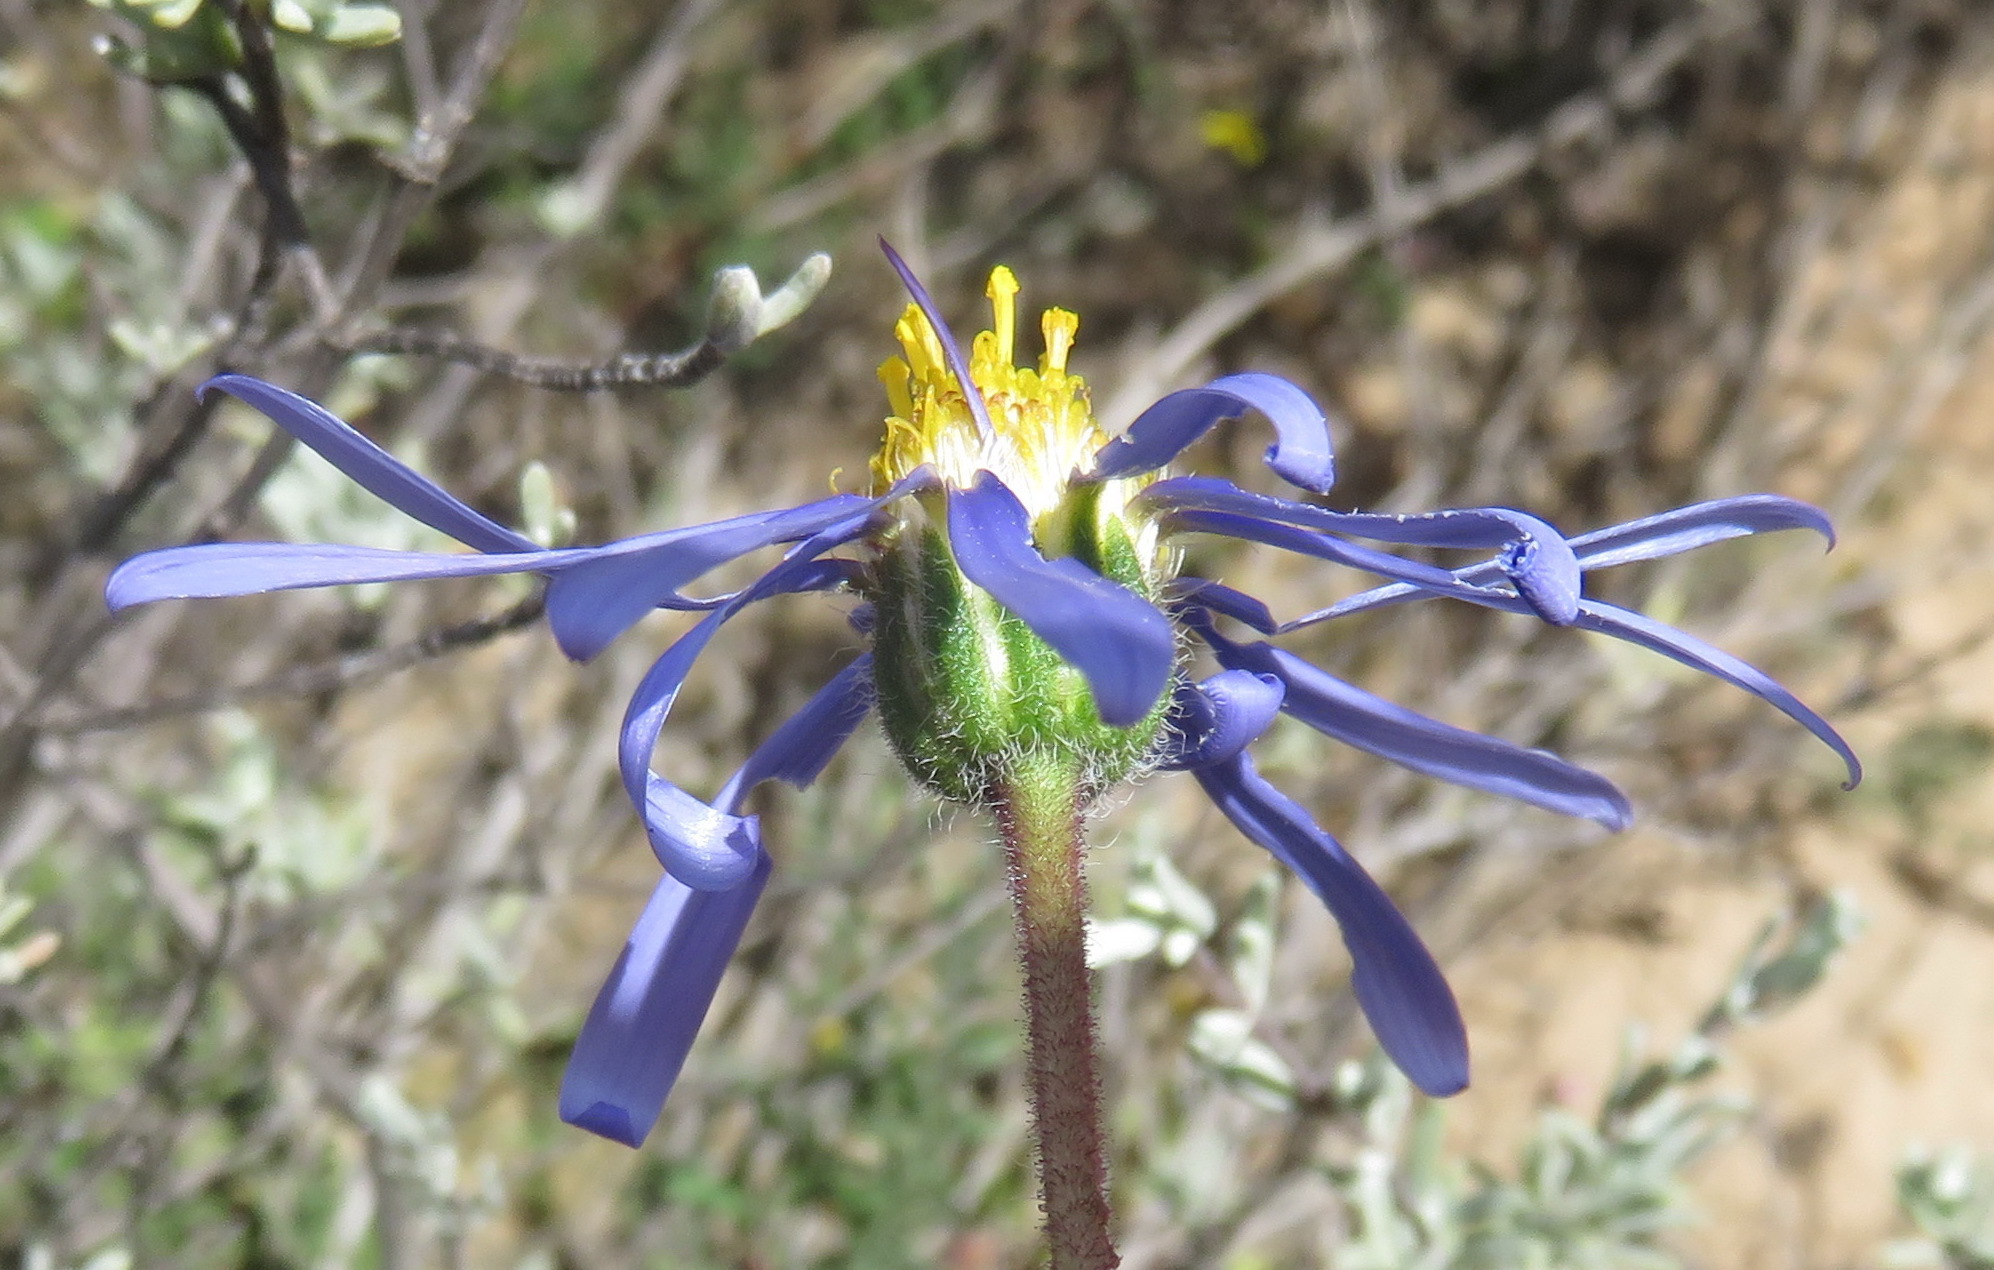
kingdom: Plantae
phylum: Tracheophyta
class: Magnoliopsida
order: Asterales
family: Asteraceae
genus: Felicia
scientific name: Felicia ovata
